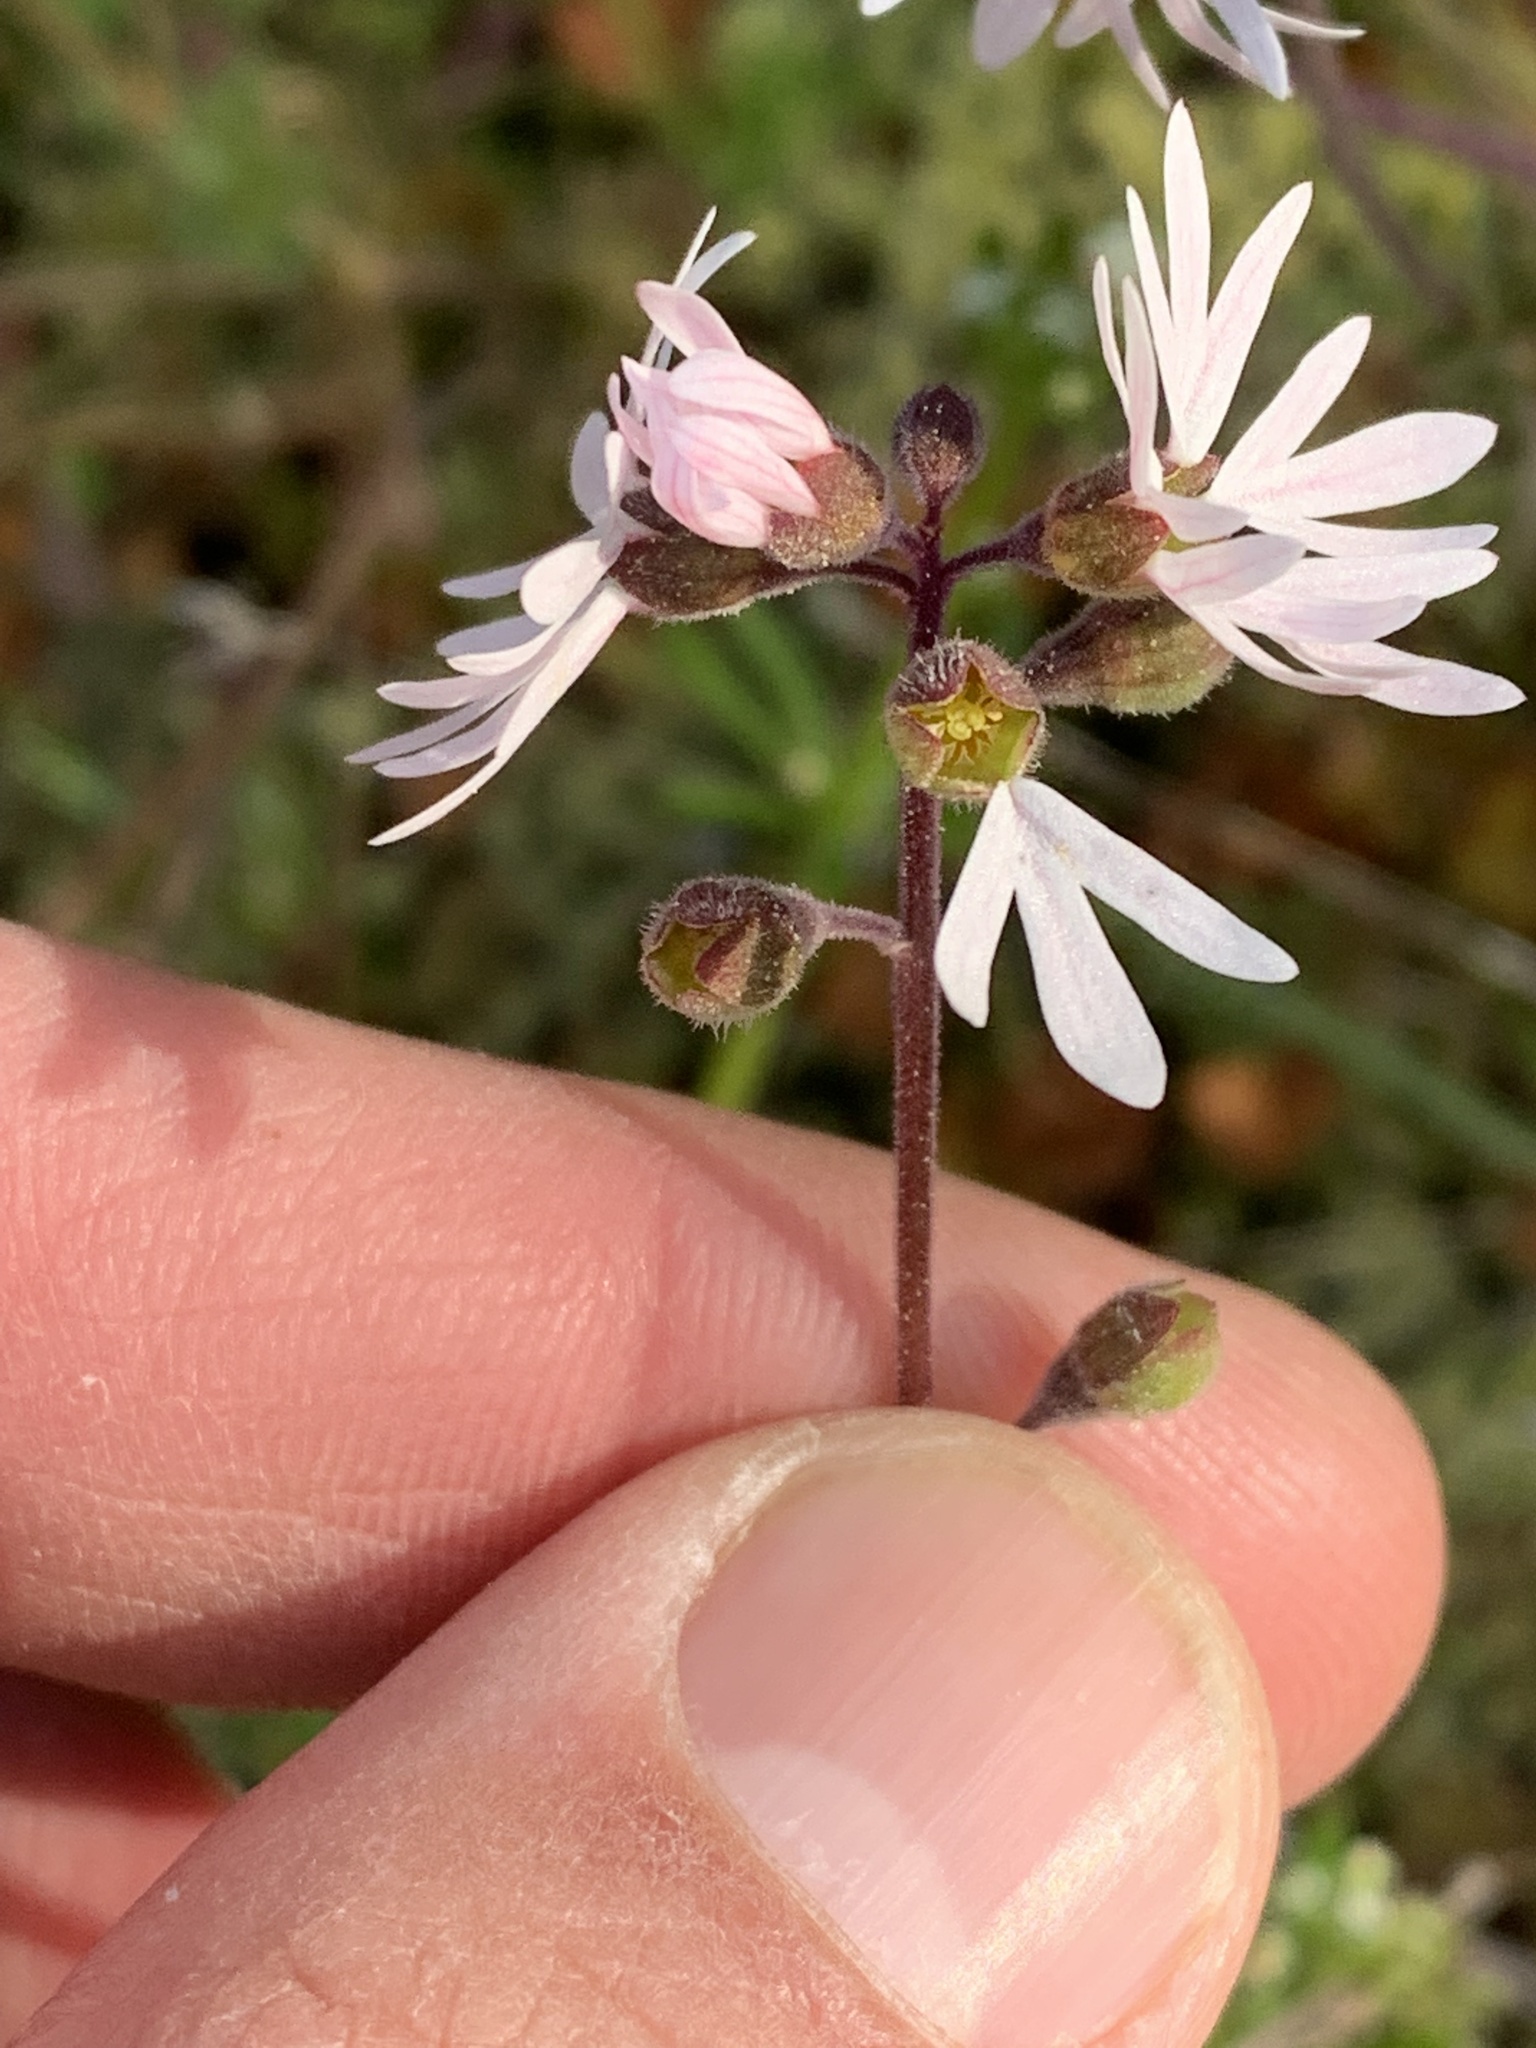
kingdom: Plantae
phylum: Tracheophyta
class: Magnoliopsida
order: Saxifragales
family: Saxifragaceae
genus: Lithophragma
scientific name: Lithophragma parviflorum
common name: Small-flowered fringe-cup
